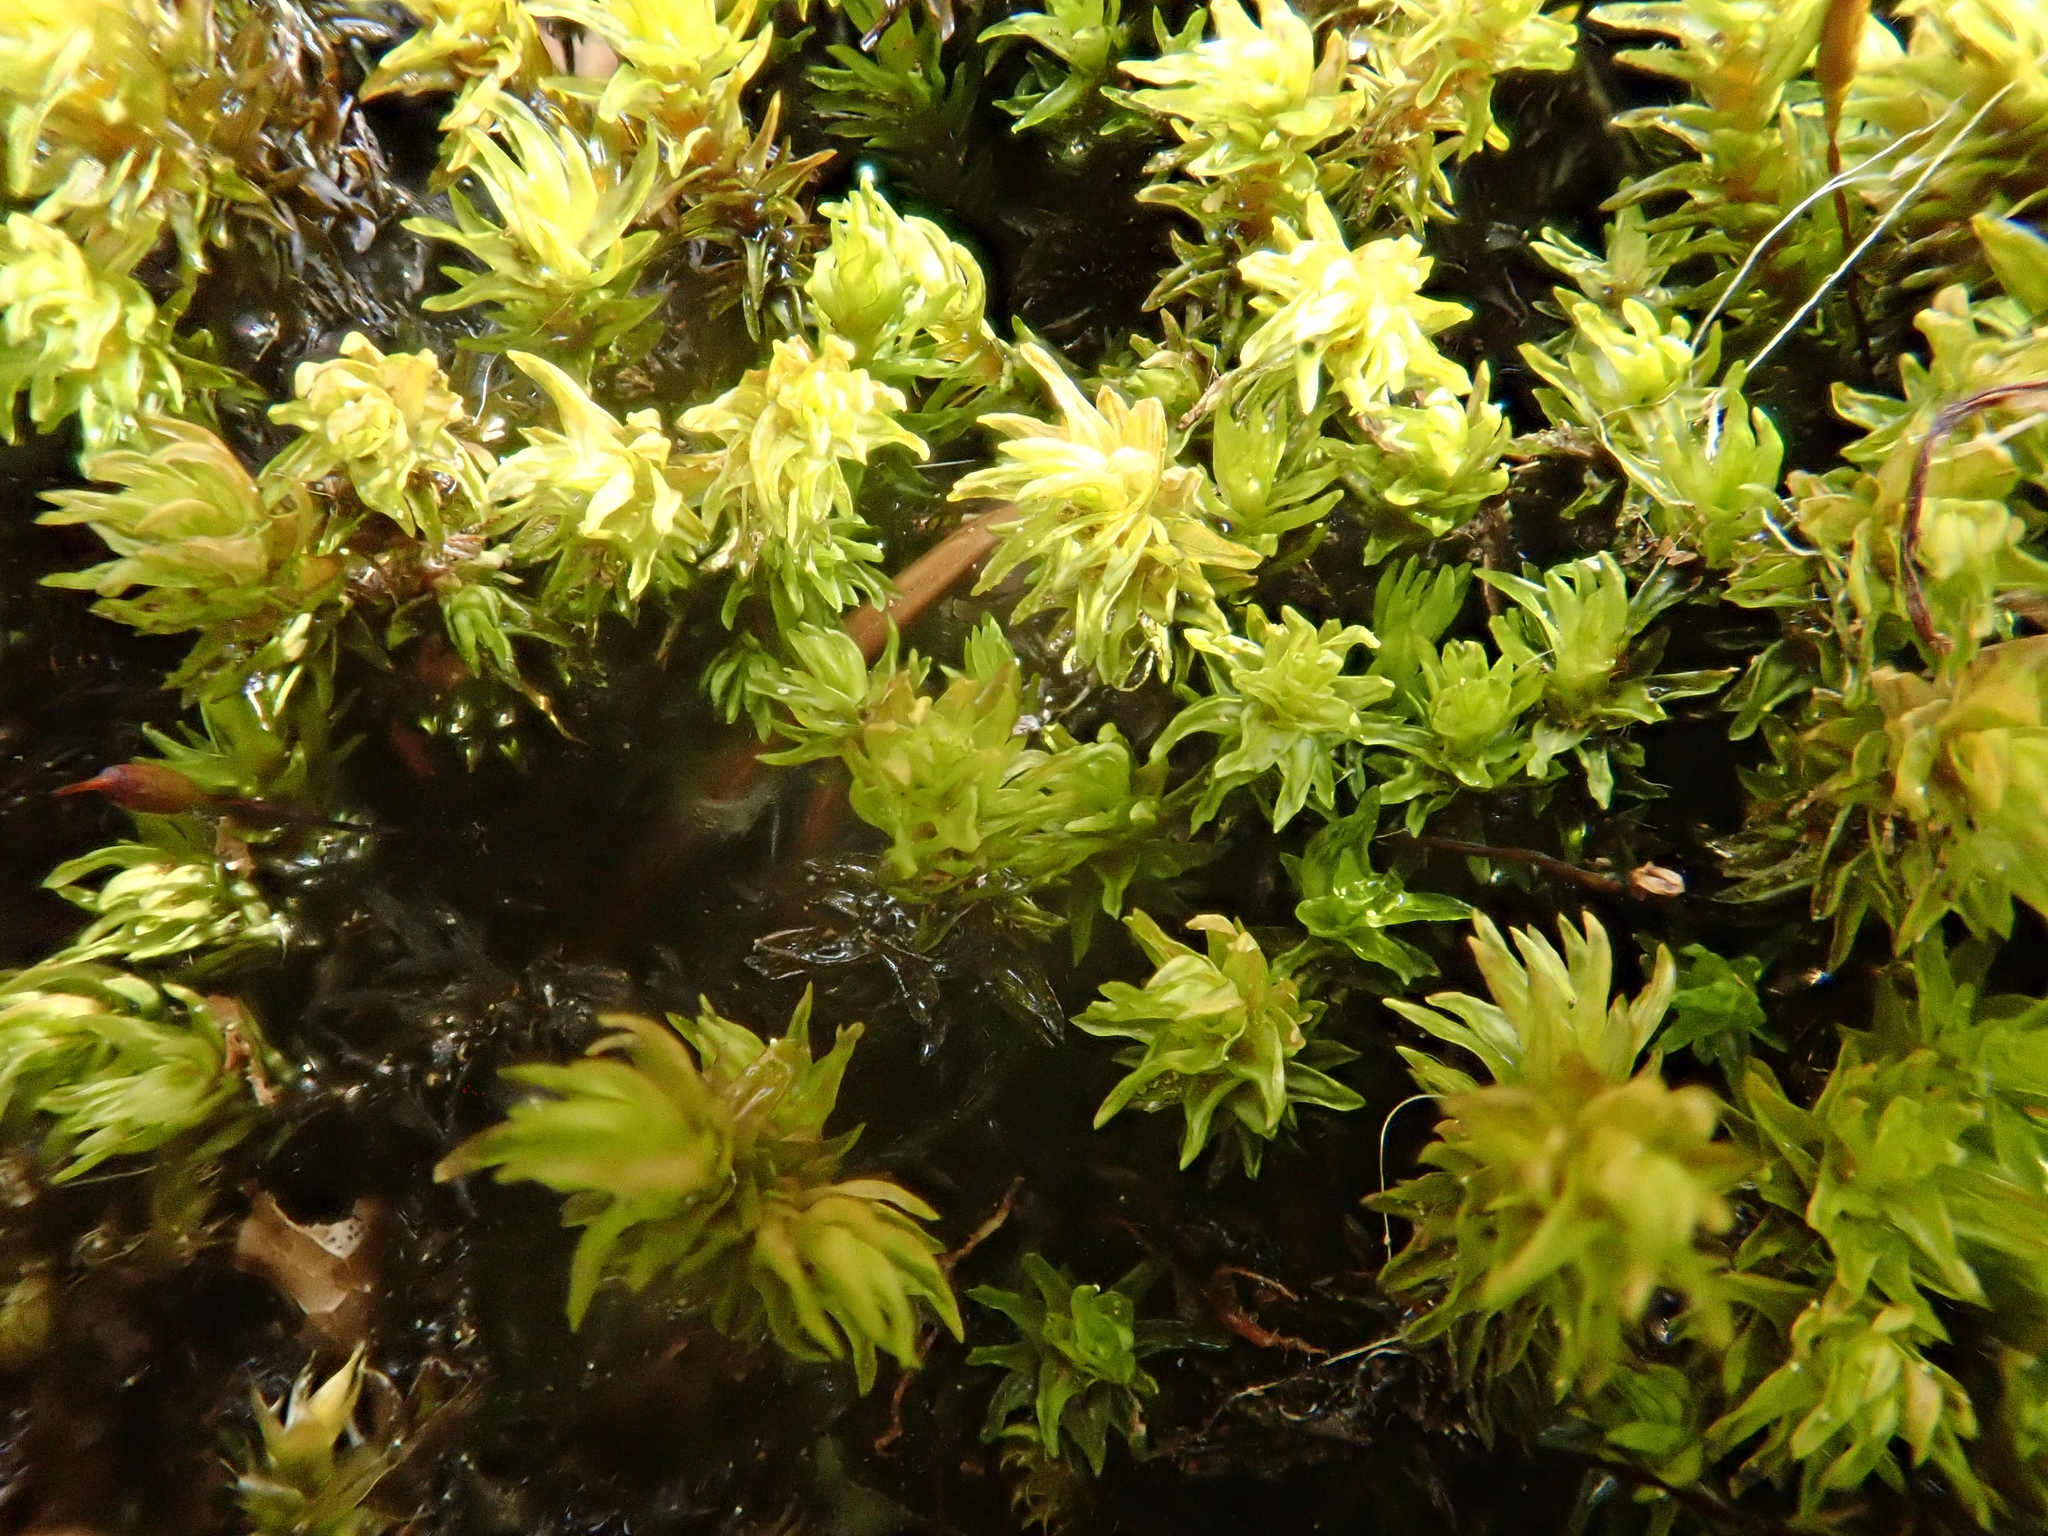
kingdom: Plantae
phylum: Bryophyta
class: Bryopsida
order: Hypnales
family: Anomodontaceae
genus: Anomodon
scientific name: Anomodon viticulosus
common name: Tall anomodon
